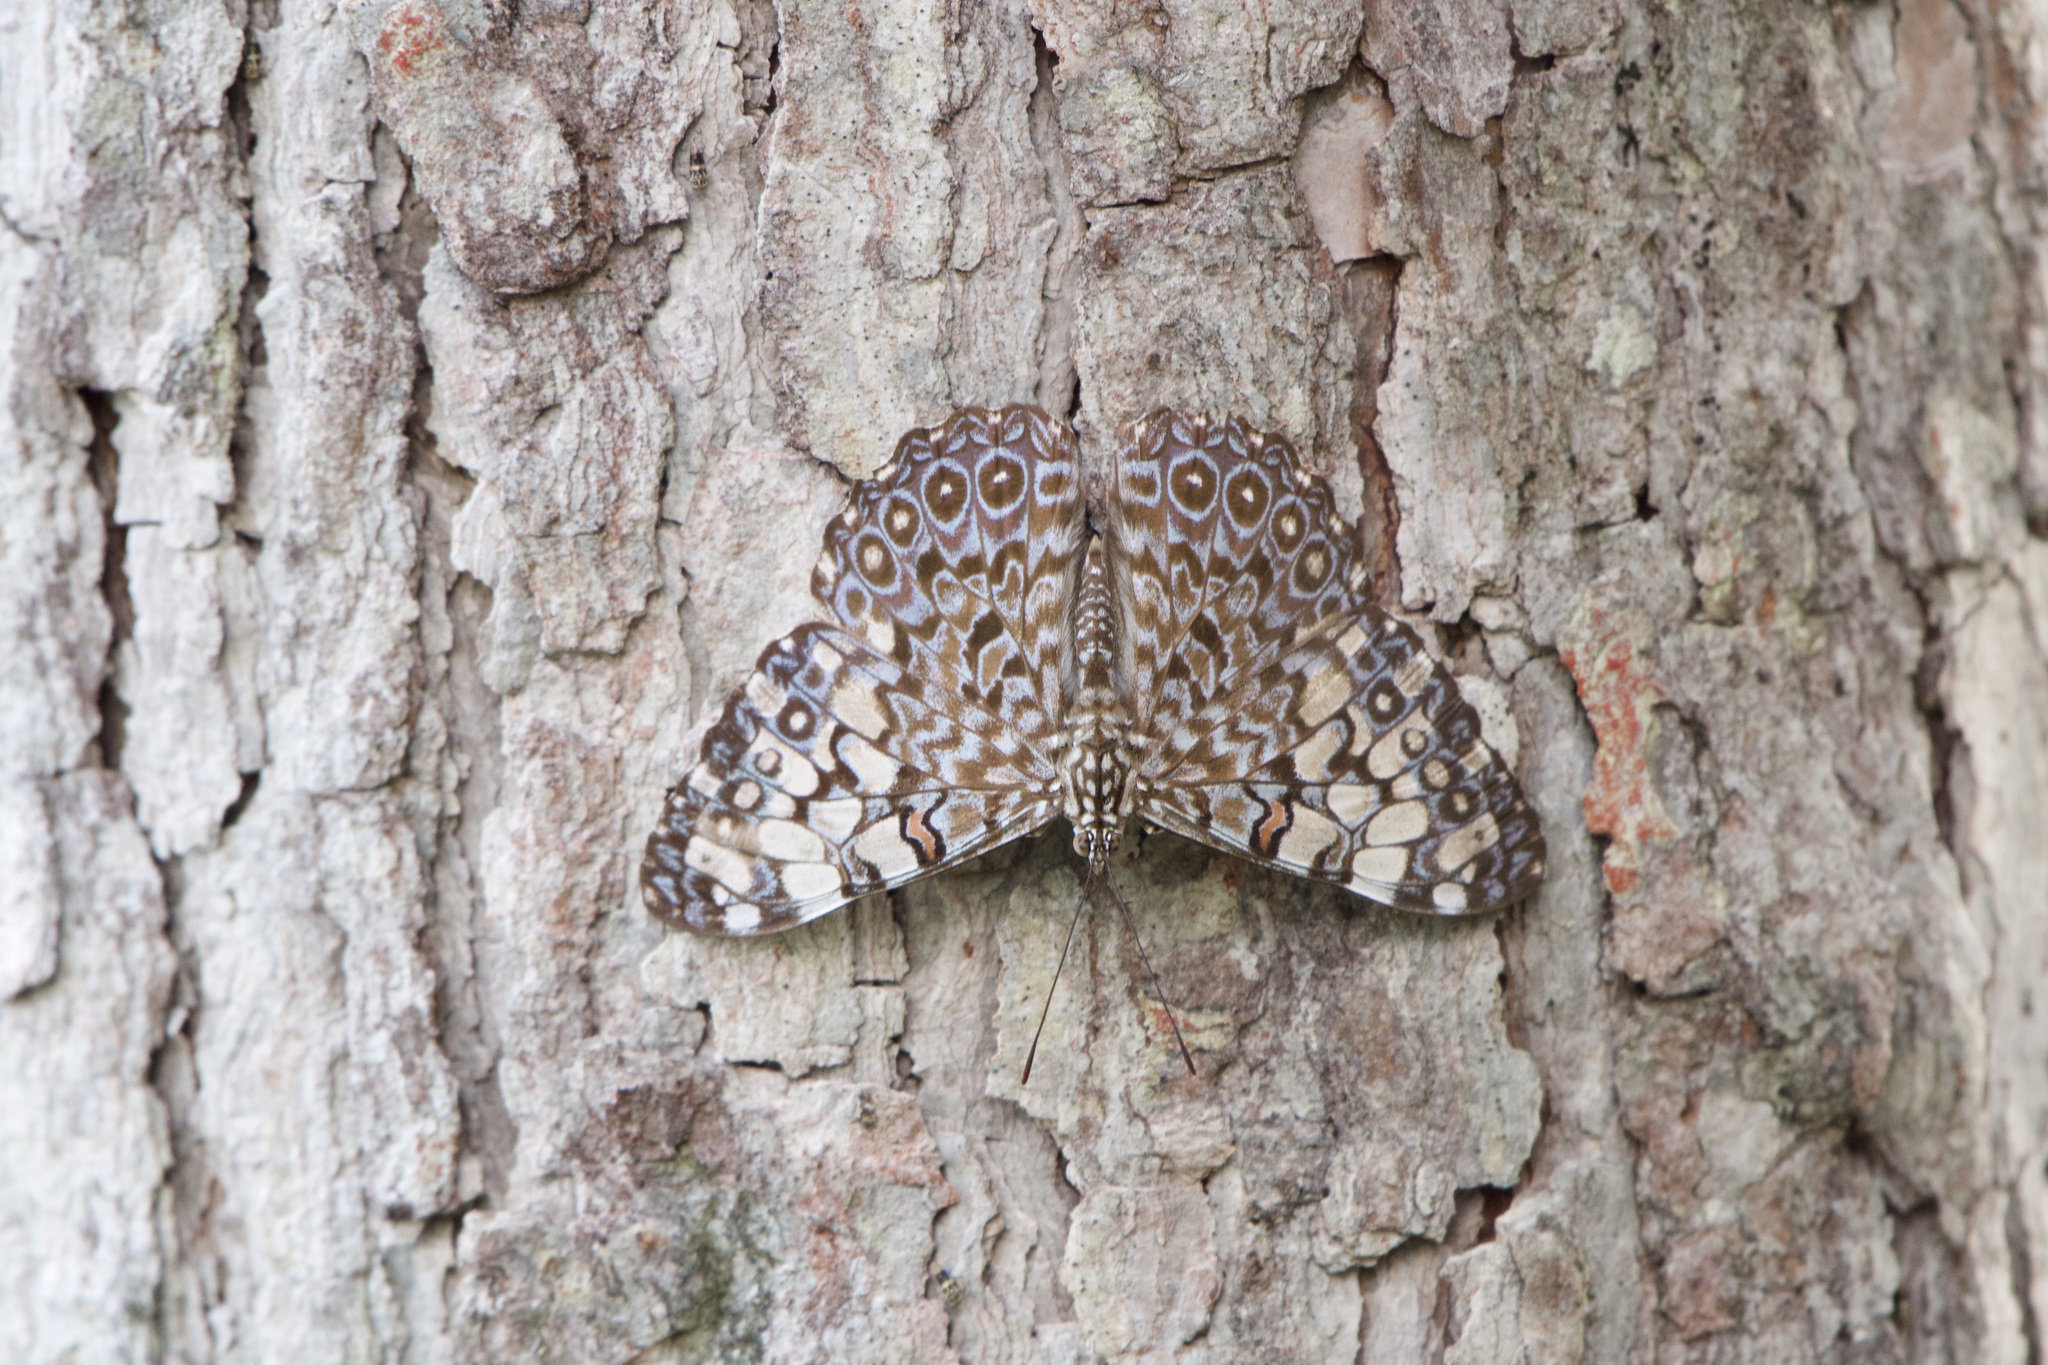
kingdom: Animalia
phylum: Arthropoda
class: Insecta
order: Lepidoptera
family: Nymphalidae
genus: Hamadryas
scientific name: Hamadryas feronia
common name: Variable cracker
